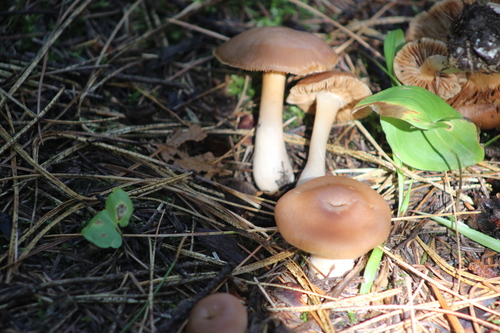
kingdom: Fungi
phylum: Basidiomycota
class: Agaricomycetes
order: Agaricales
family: Cortinariaceae
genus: Cortinarius
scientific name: Cortinarius
